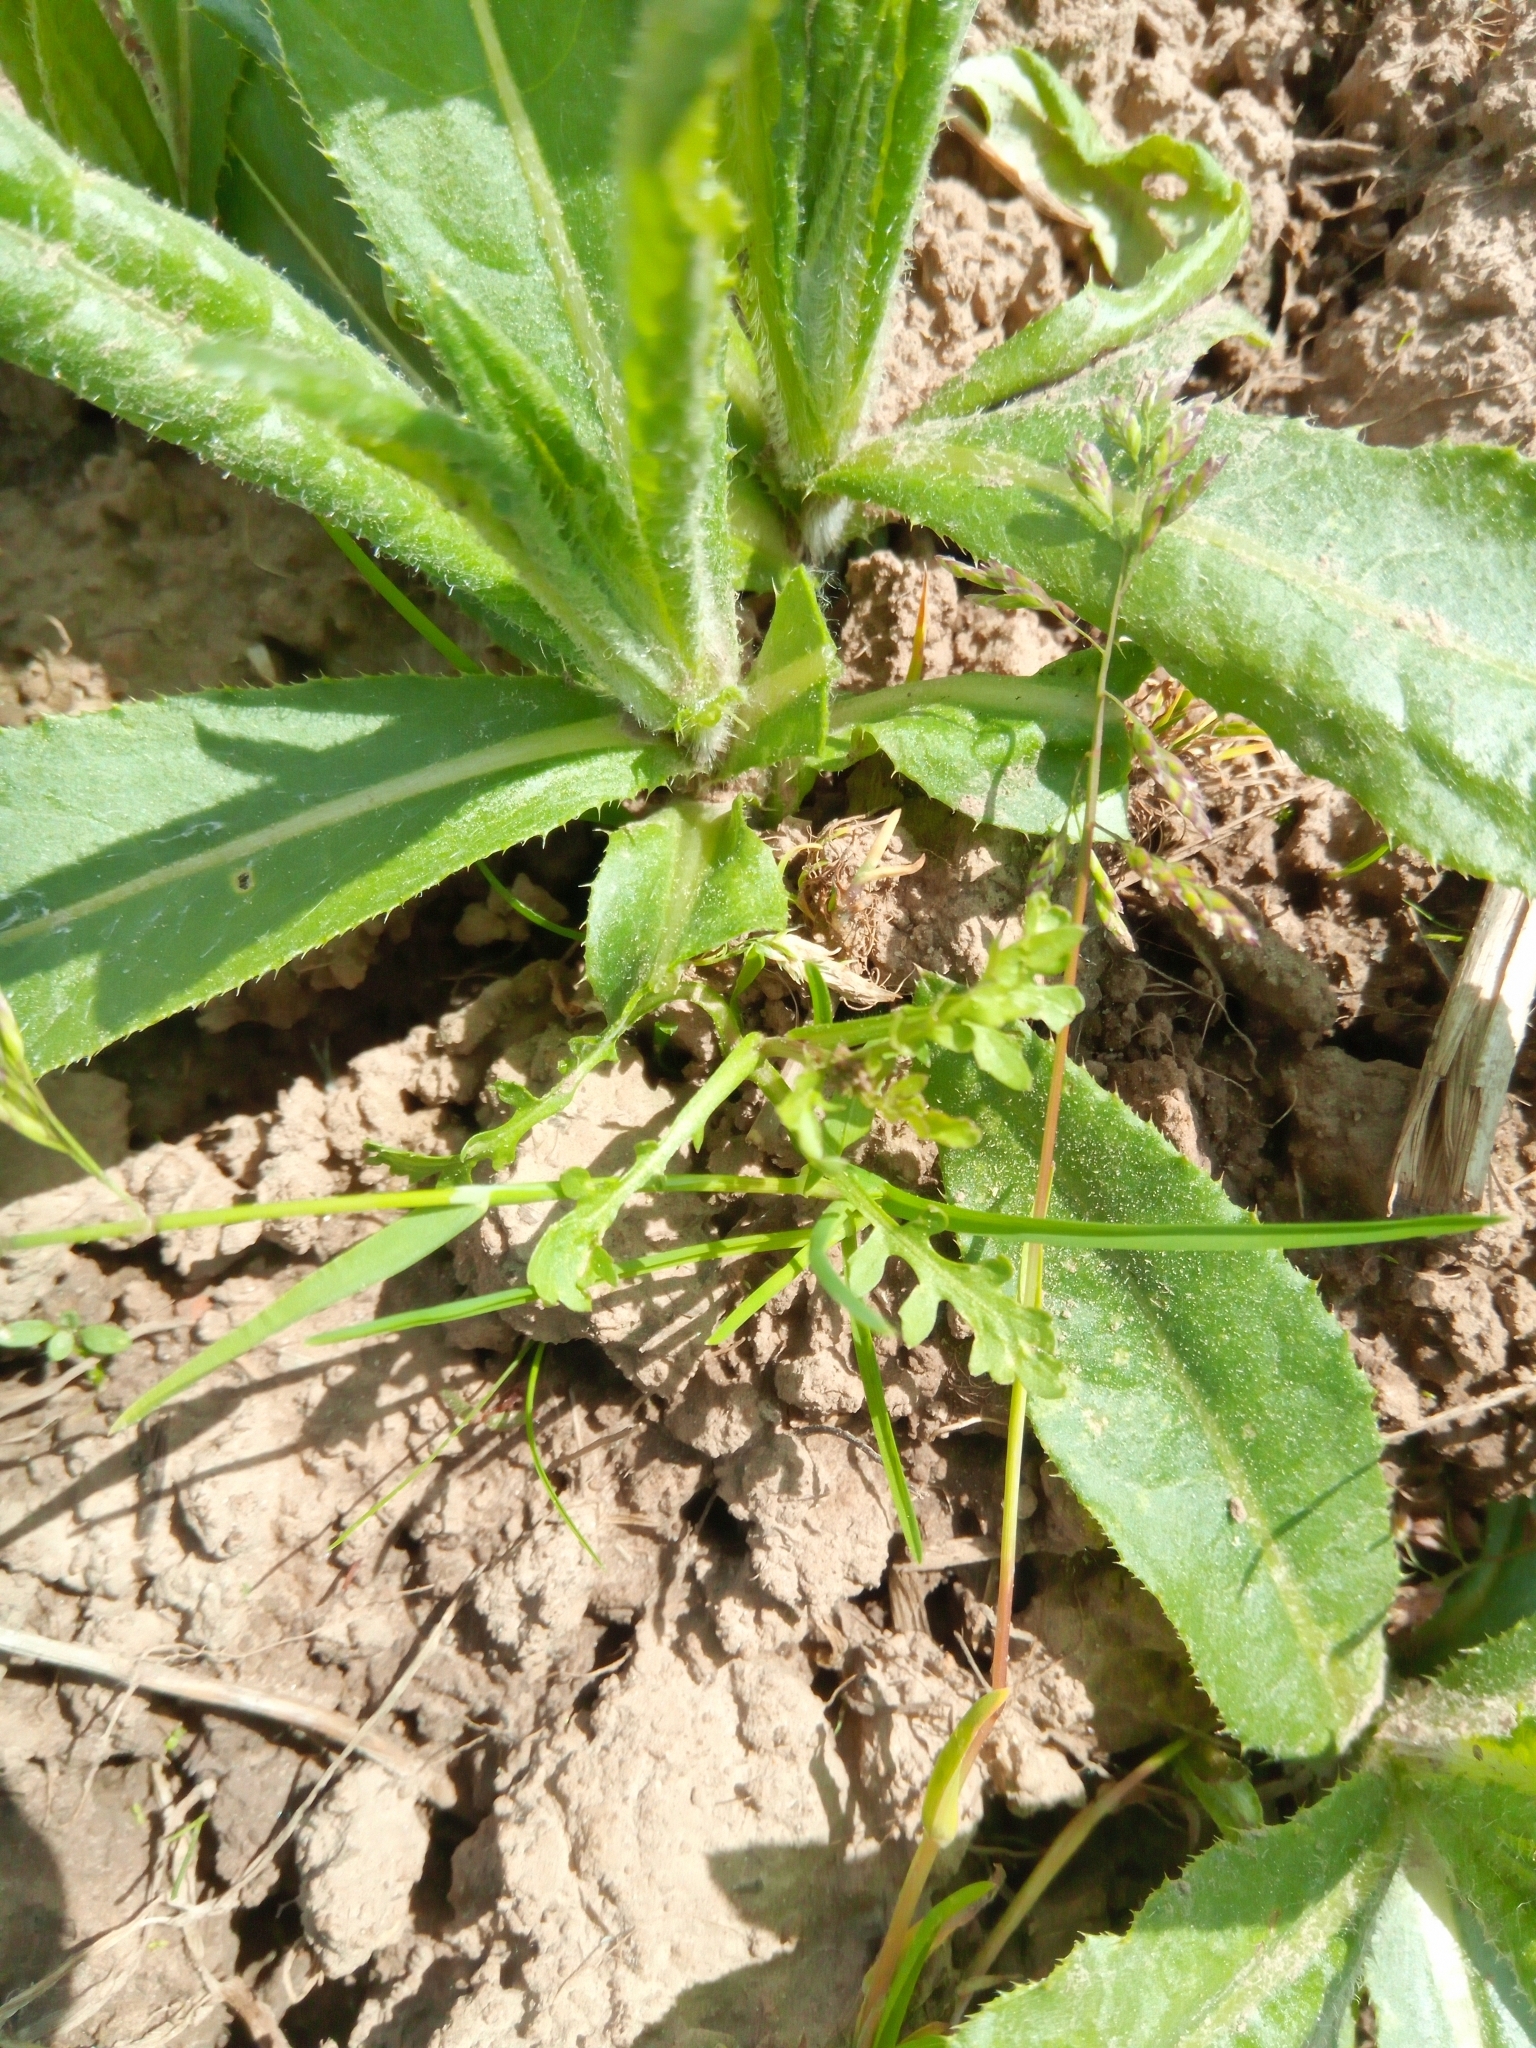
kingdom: Plantae
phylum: Tracheophyta
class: Magnoliopsida
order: Asterales
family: Asteraceae
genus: Cirsium
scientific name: Cirsium arvense
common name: Creeping thistle
